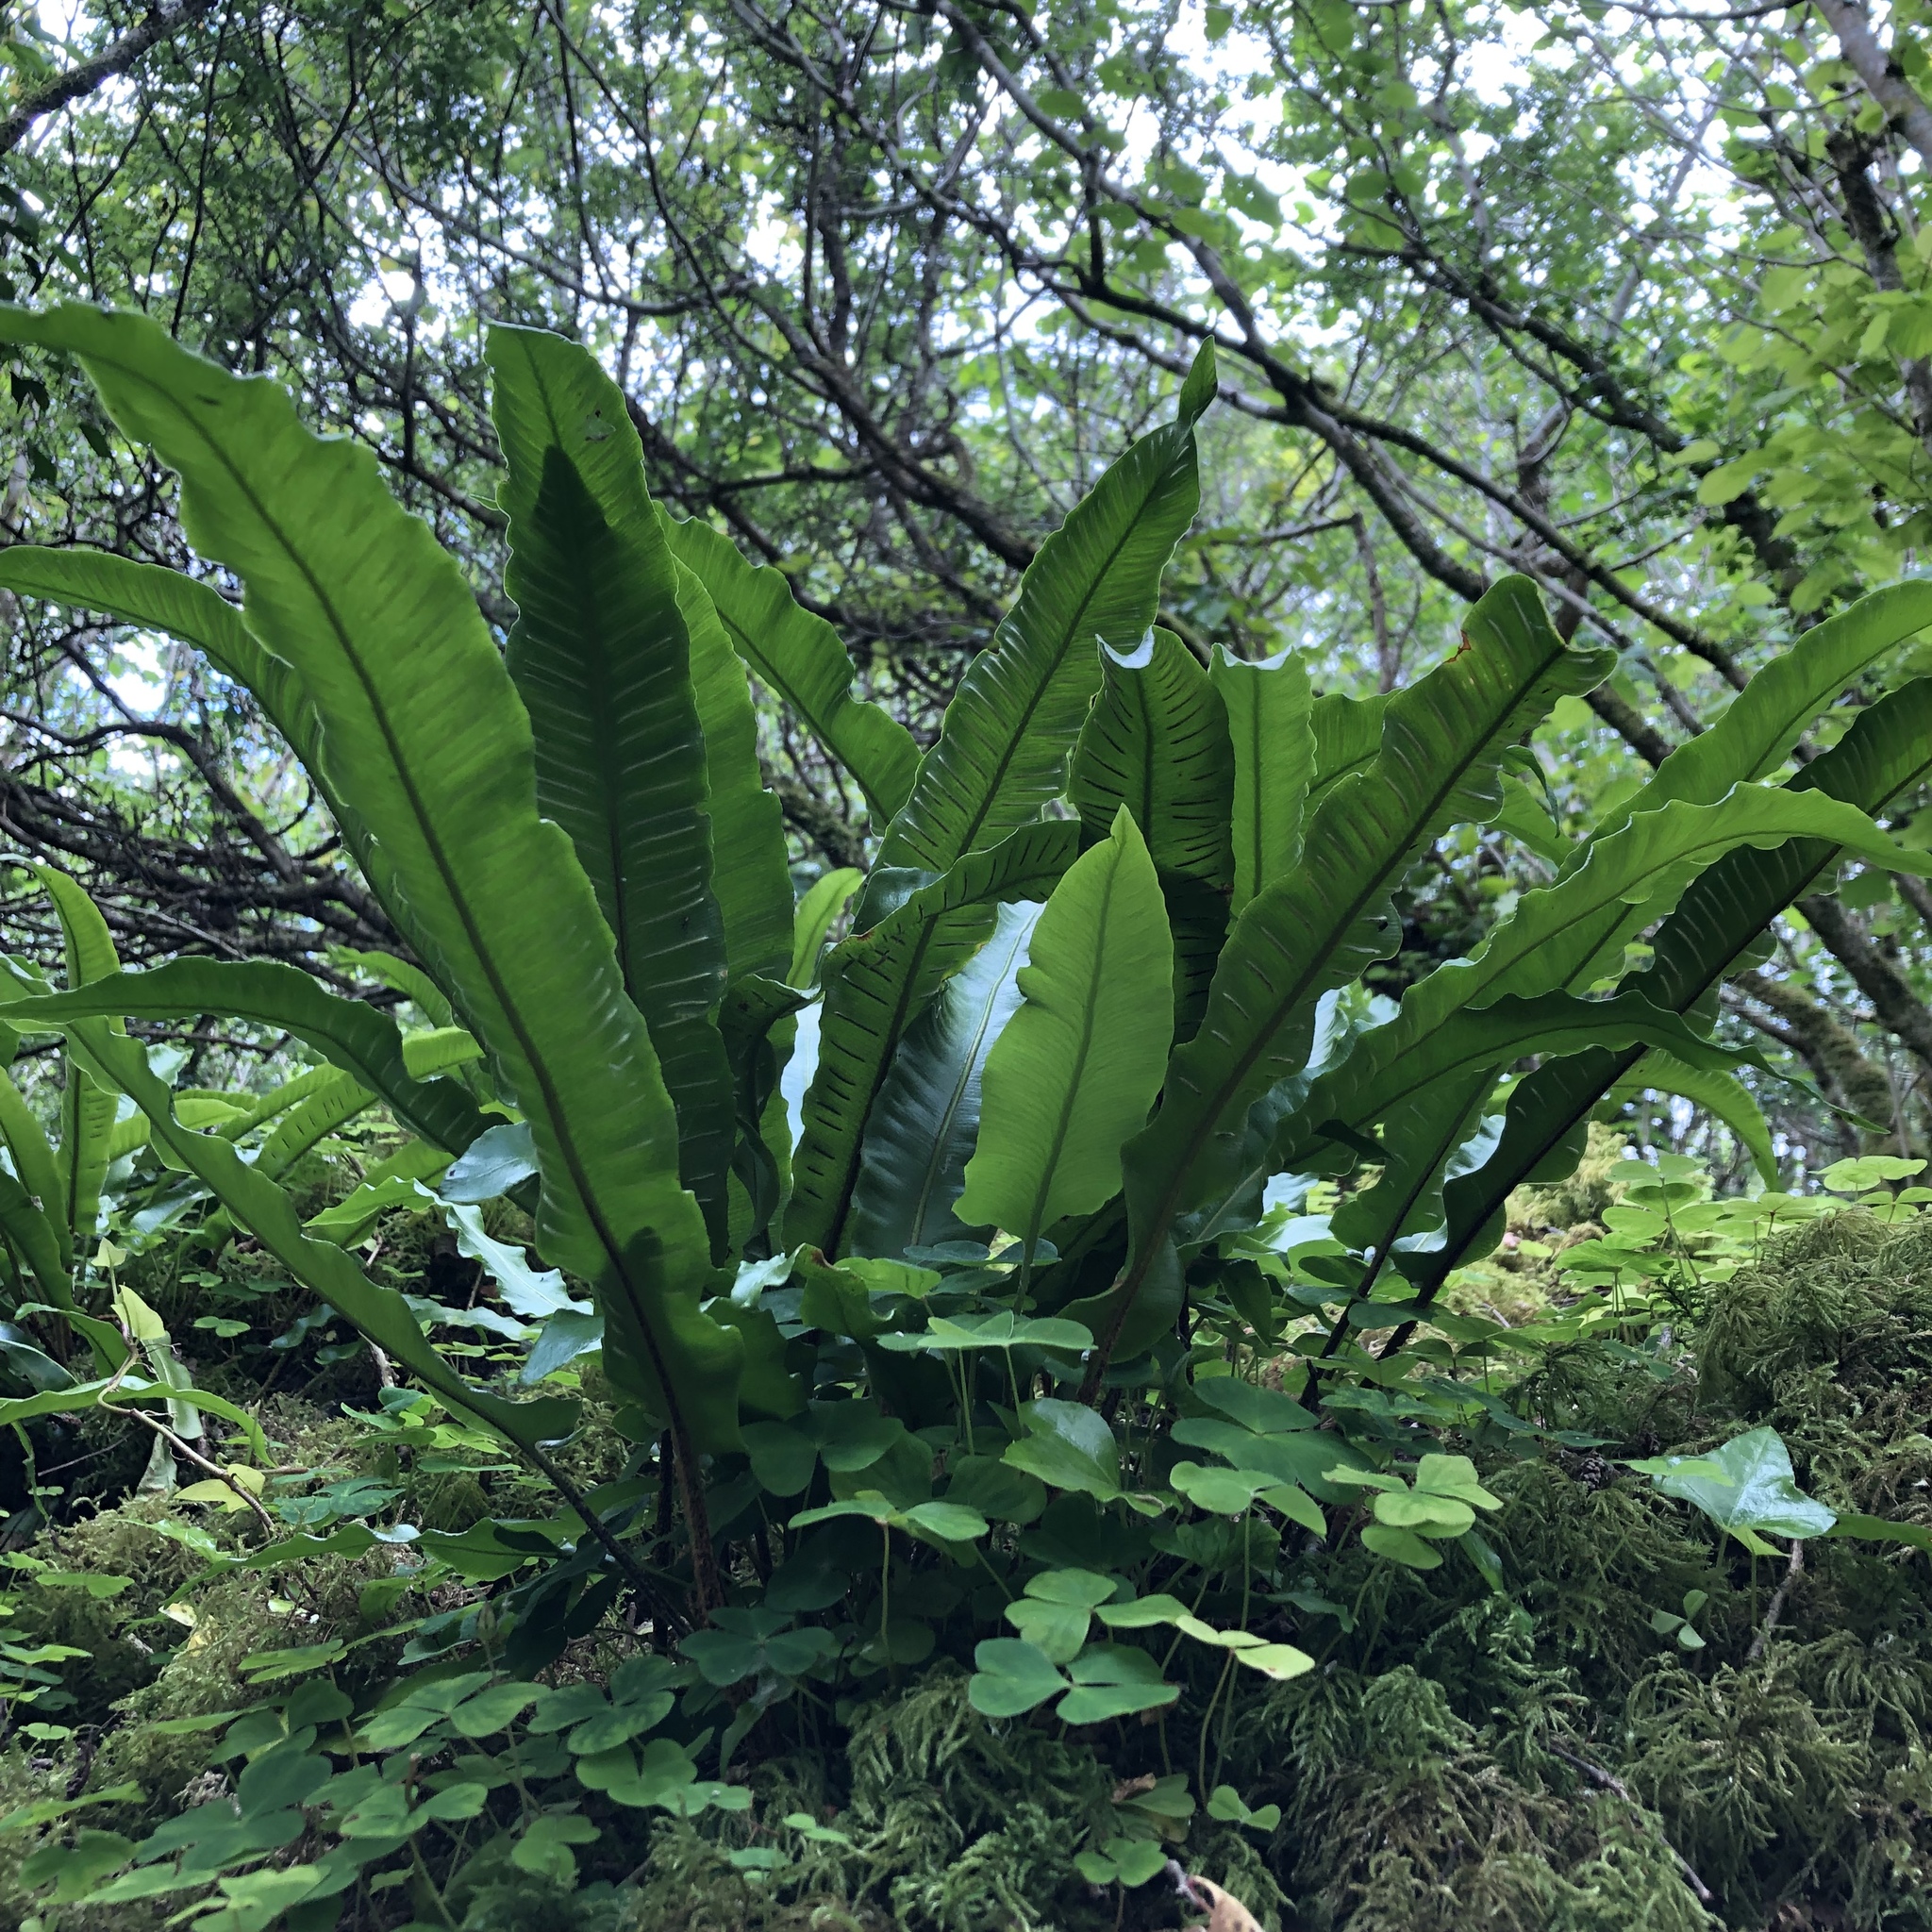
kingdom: Plantae
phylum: Tracheophyta
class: Polypodiopsida
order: Polypodiales
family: Aspleniaceae
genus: Asplenium
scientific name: Asplenium scolopendrium
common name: Hart's-tongue fern
